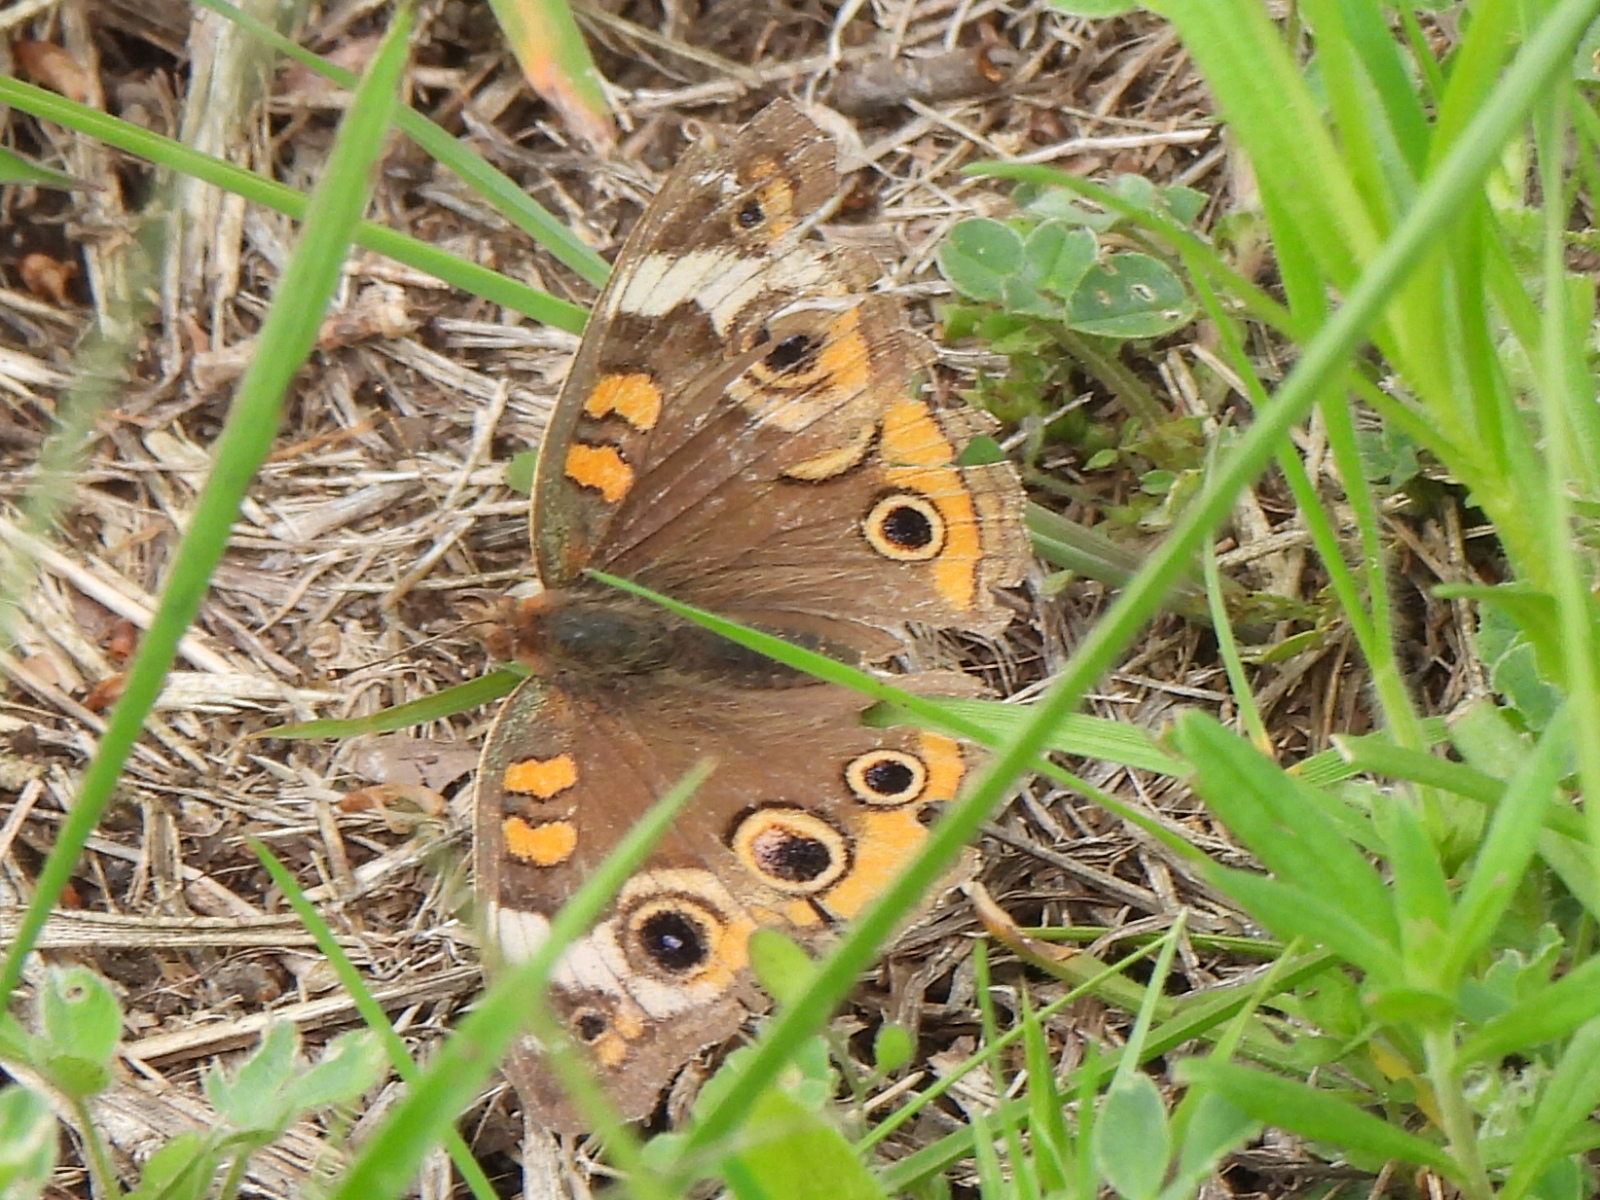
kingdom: Animalia
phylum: Arthropoda
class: Insecta
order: Lepidoptera
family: Nymphalidae
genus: Junonia
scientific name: Junonia coenia
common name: Common buckeye
